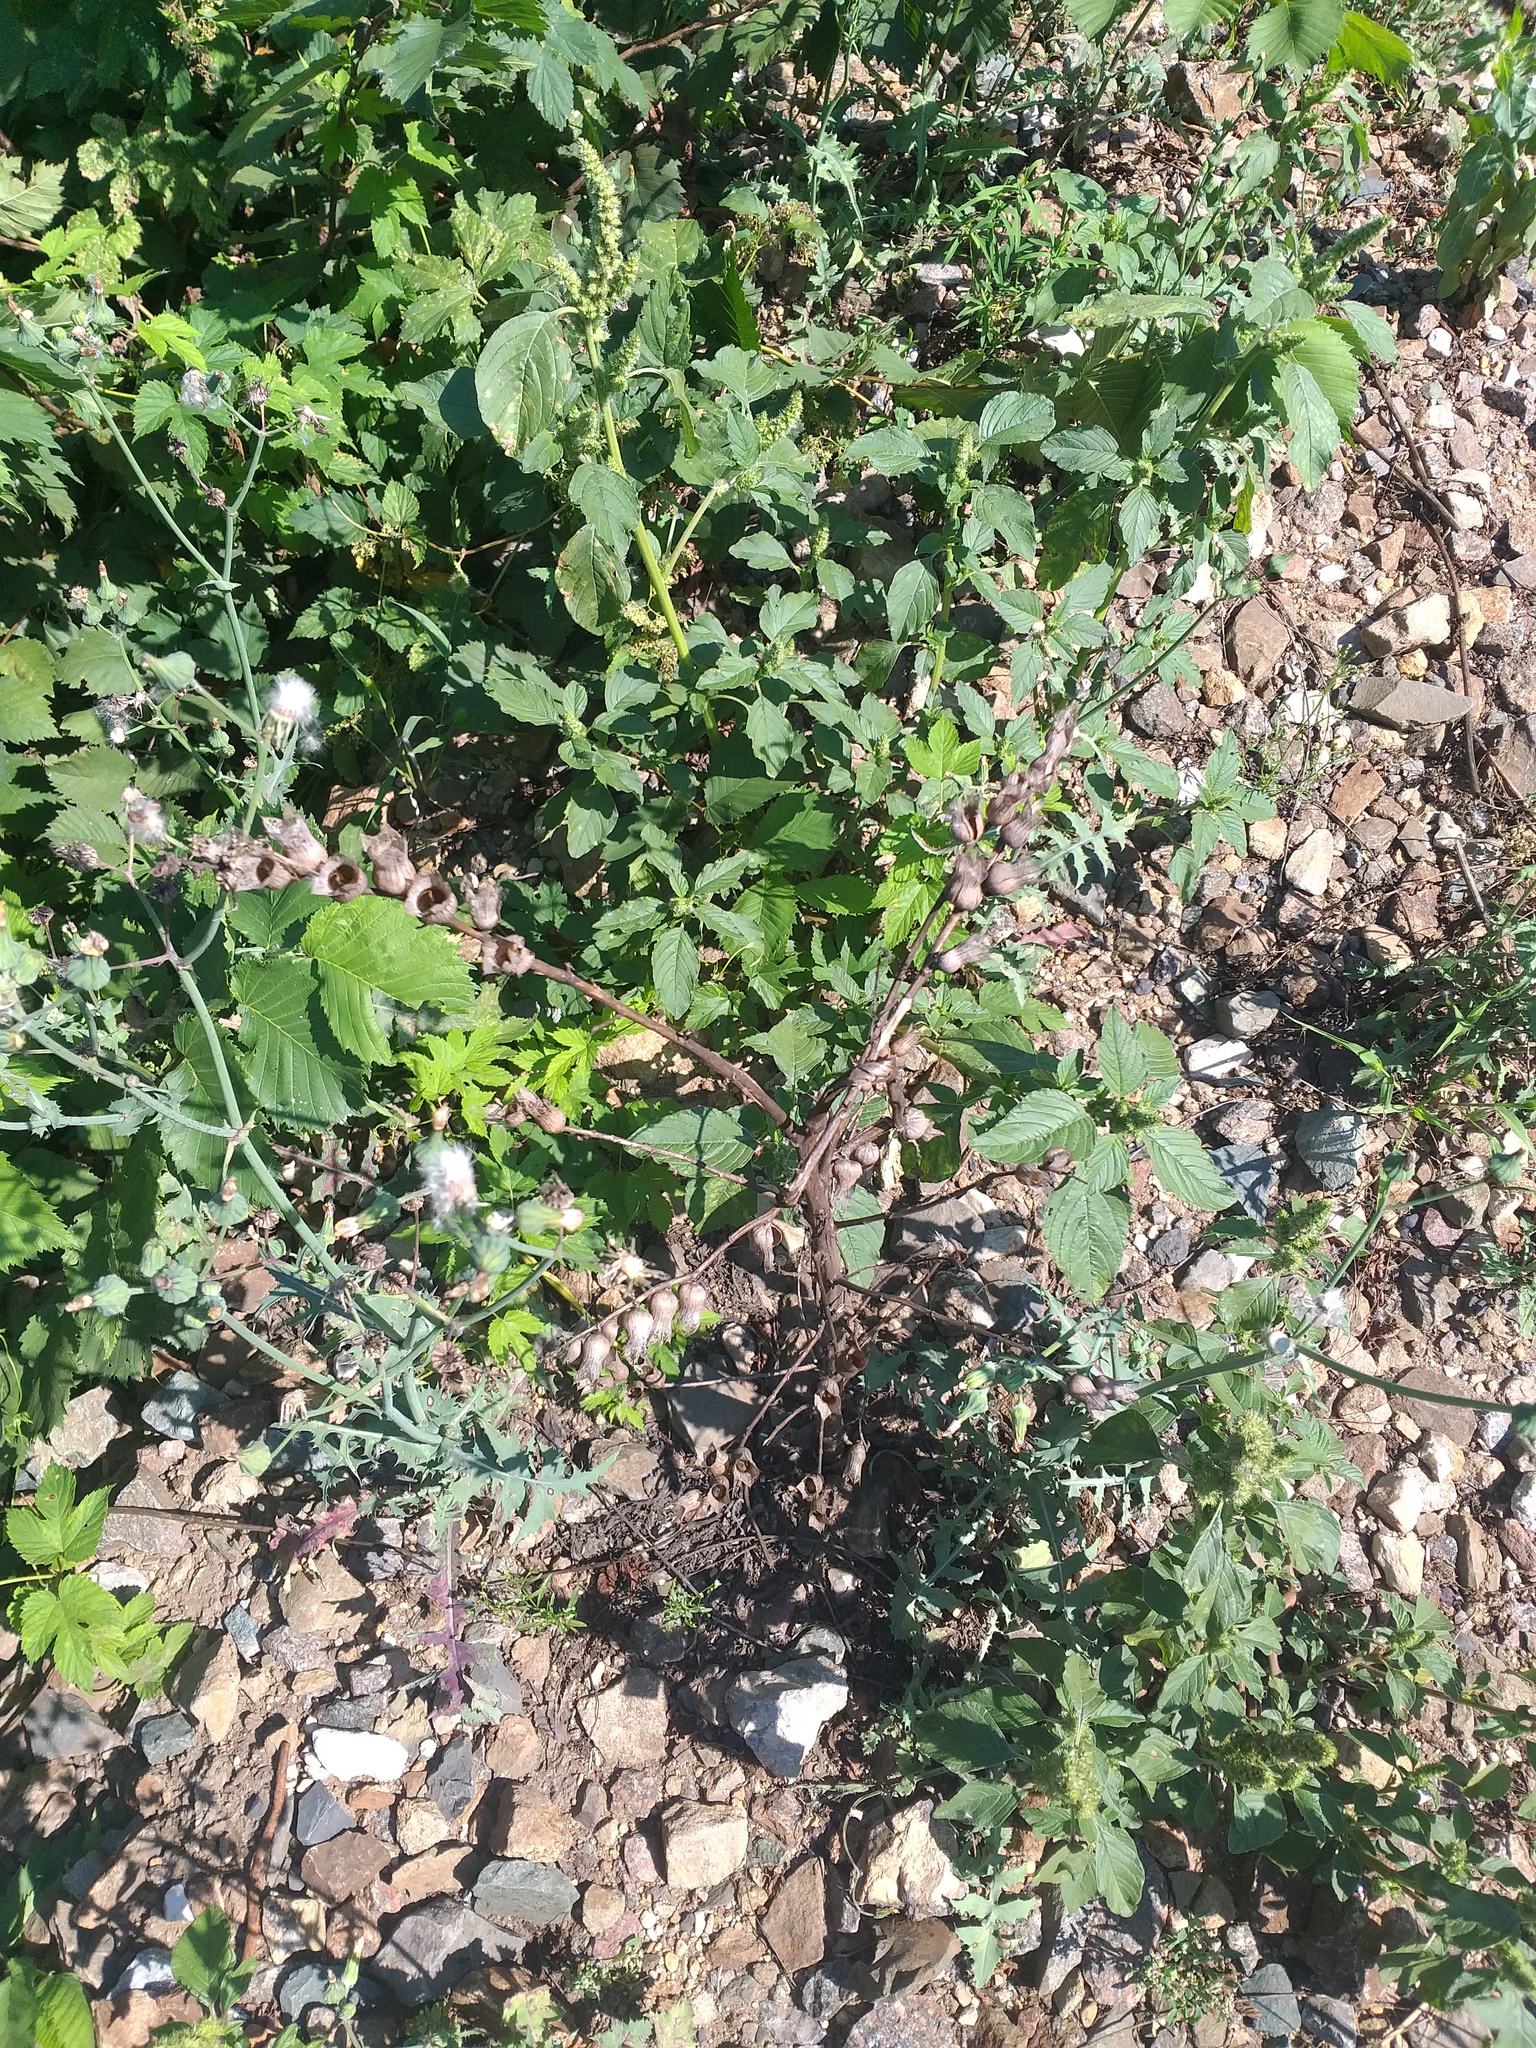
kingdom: Plantae
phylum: Tracheophyta
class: Magnoliopsida
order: Solanales
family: Solanaceae
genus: Hyoscyamus
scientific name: Hyoscyamus niger
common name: Henbane
